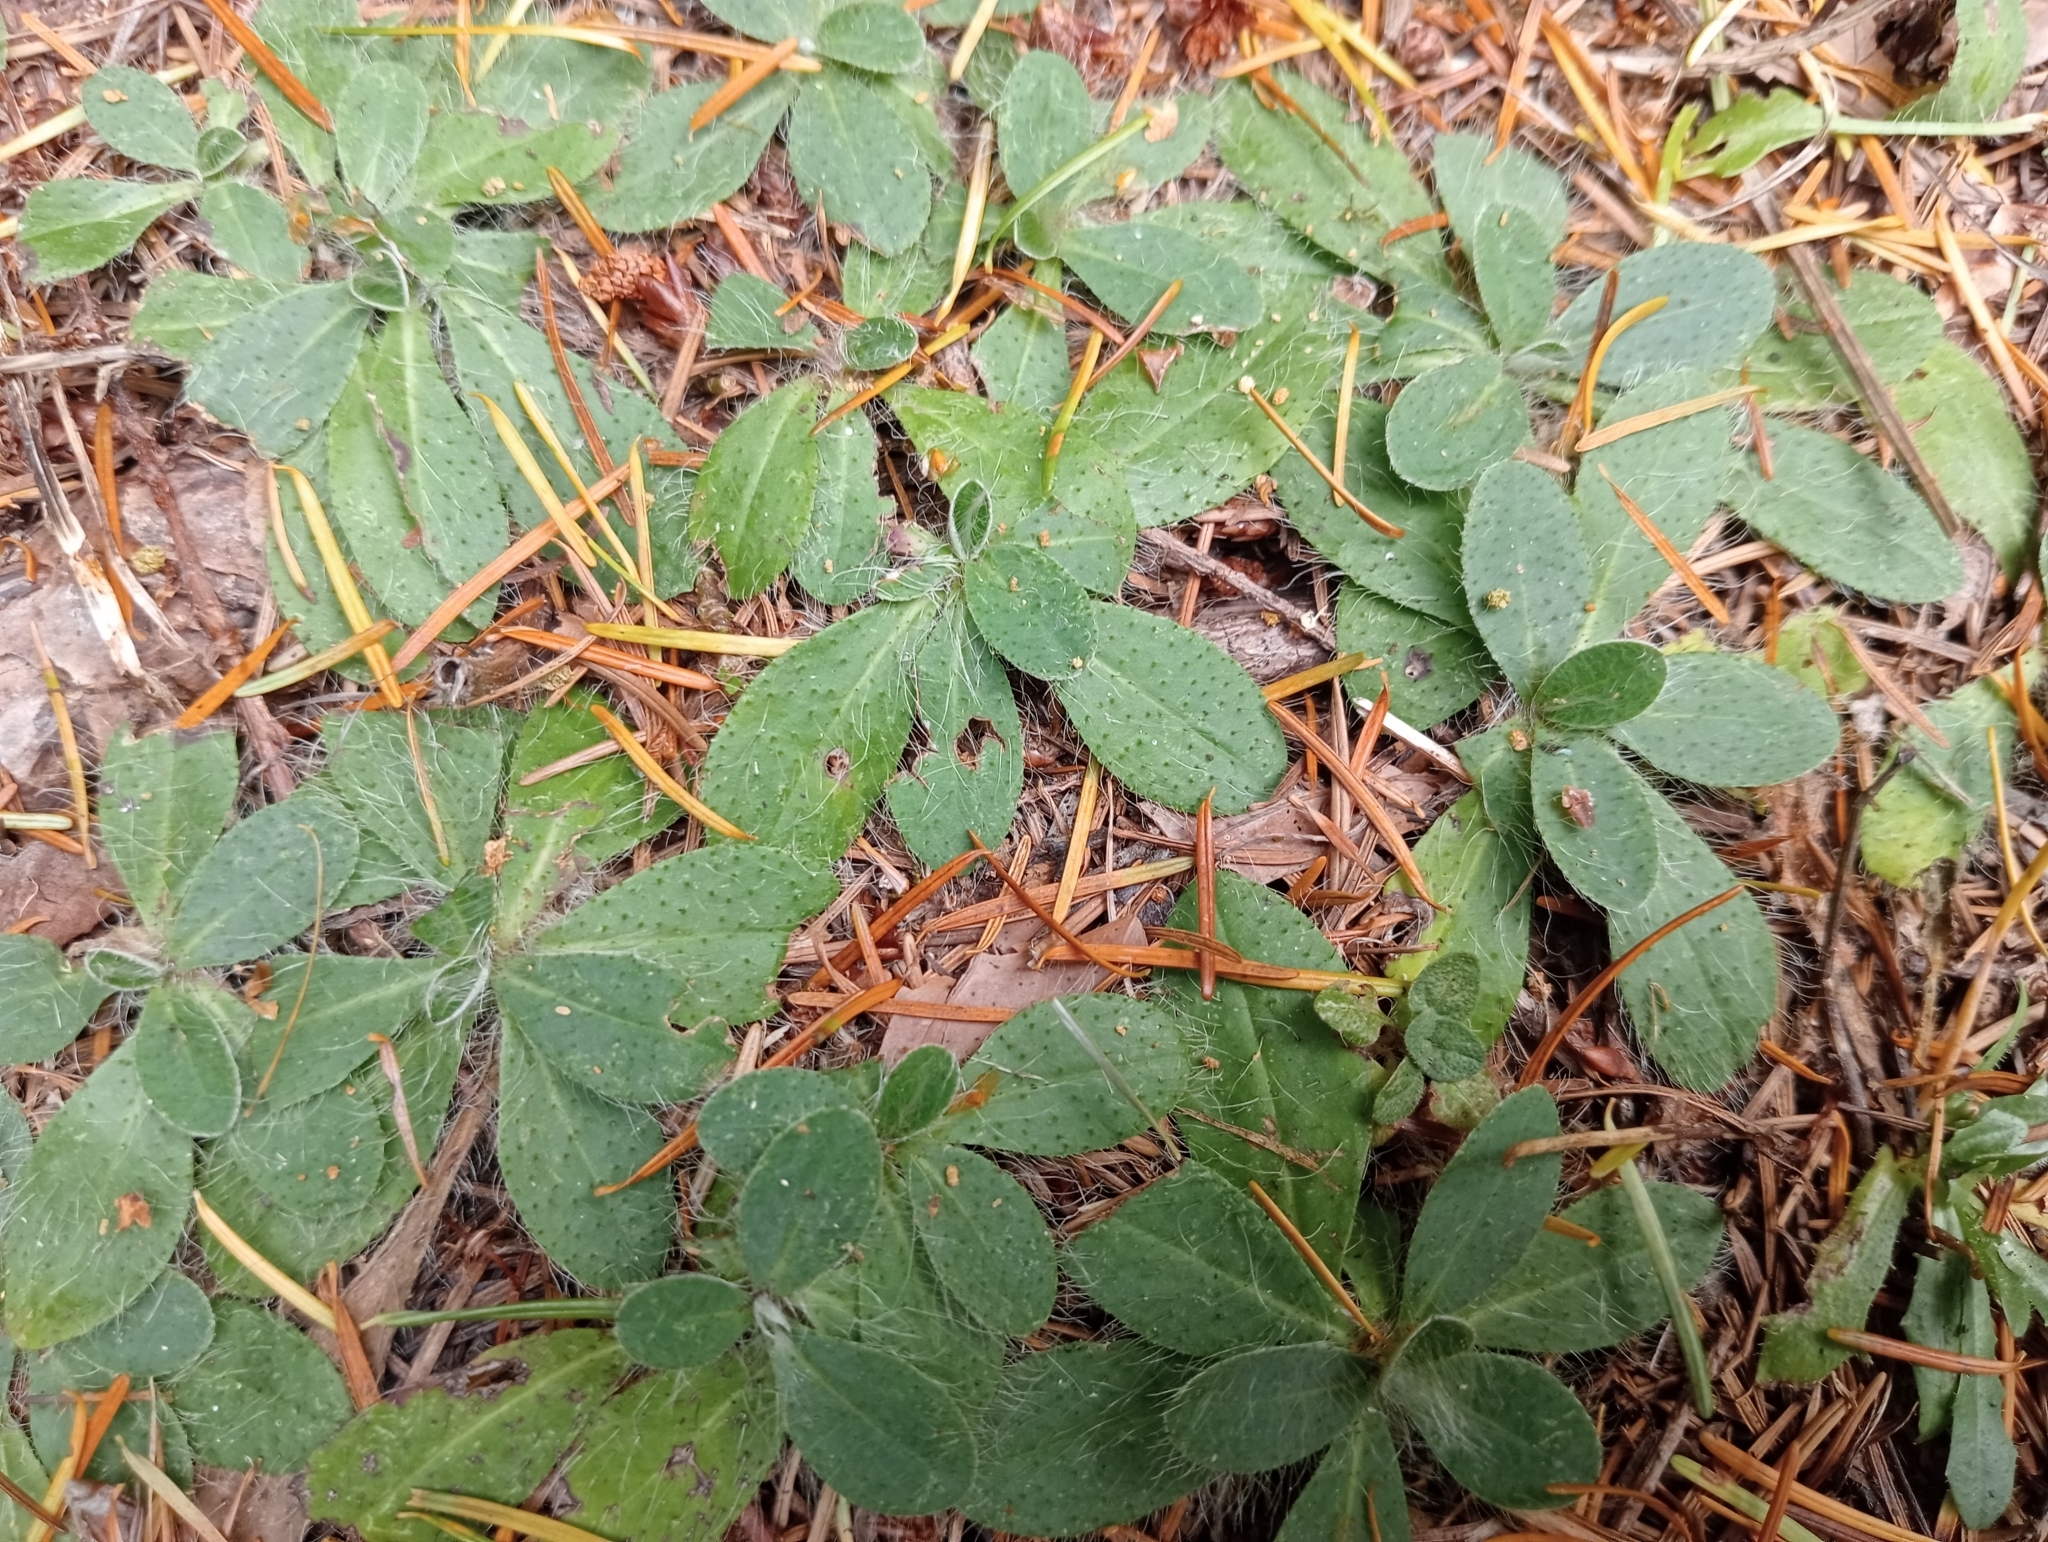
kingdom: Plantae
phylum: Tracheophyta
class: Magnoliopsida
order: Asterales
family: Asteraceae
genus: Pilosella
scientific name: Pilosella officinarum
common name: Mouse-ear hawkweed
